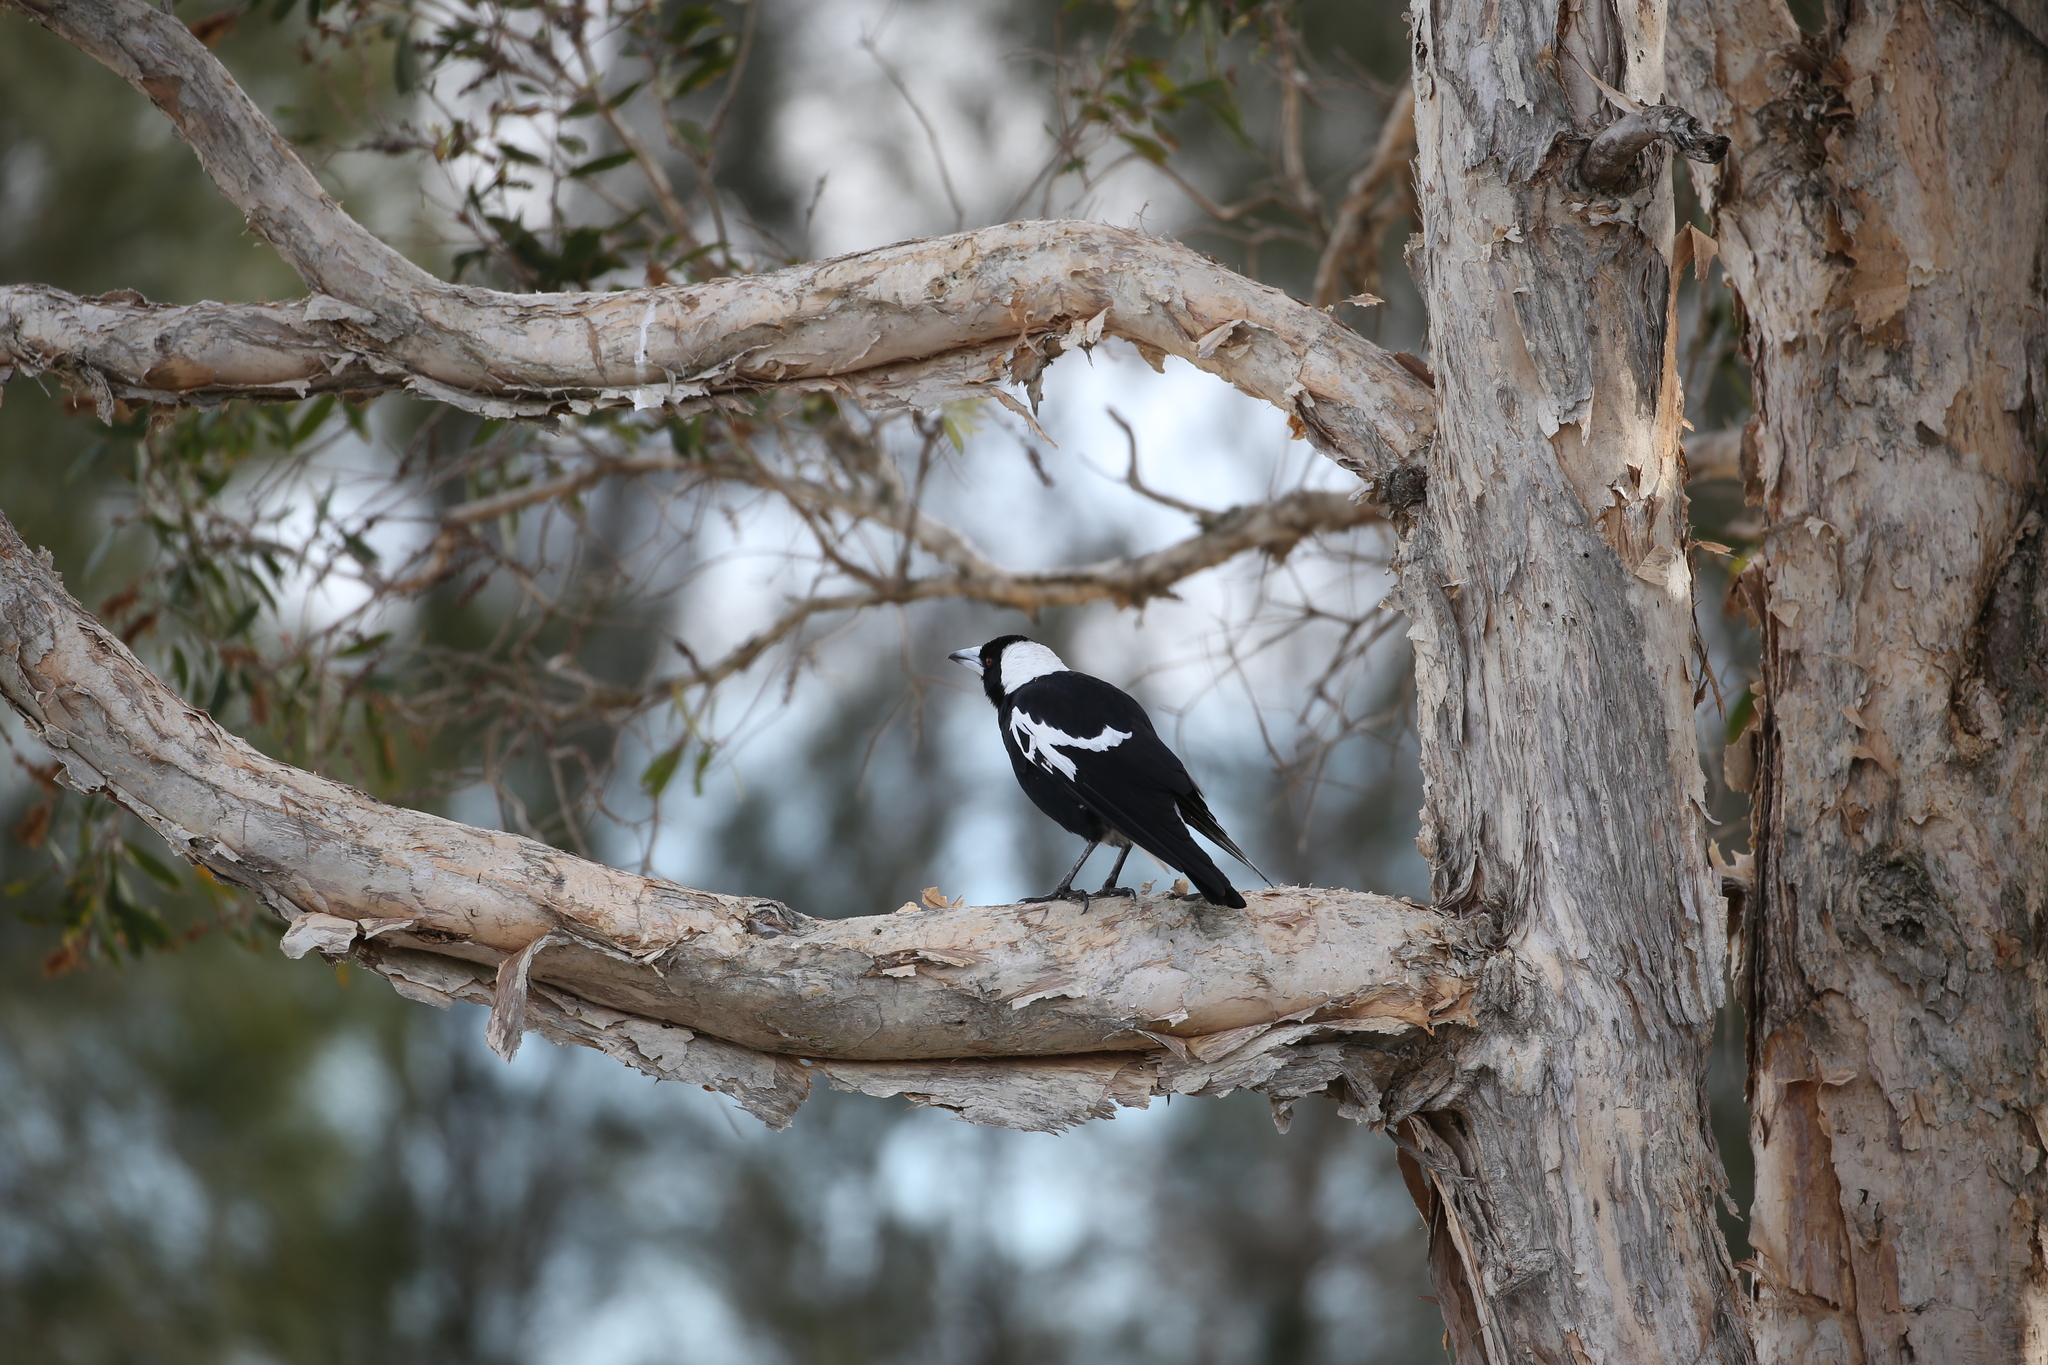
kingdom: Animalia
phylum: Chordata
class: Aves
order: Passeriformes
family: Cracticidae
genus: Gymnorhina
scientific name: Gymnorhina tibicen
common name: Australian magpie
